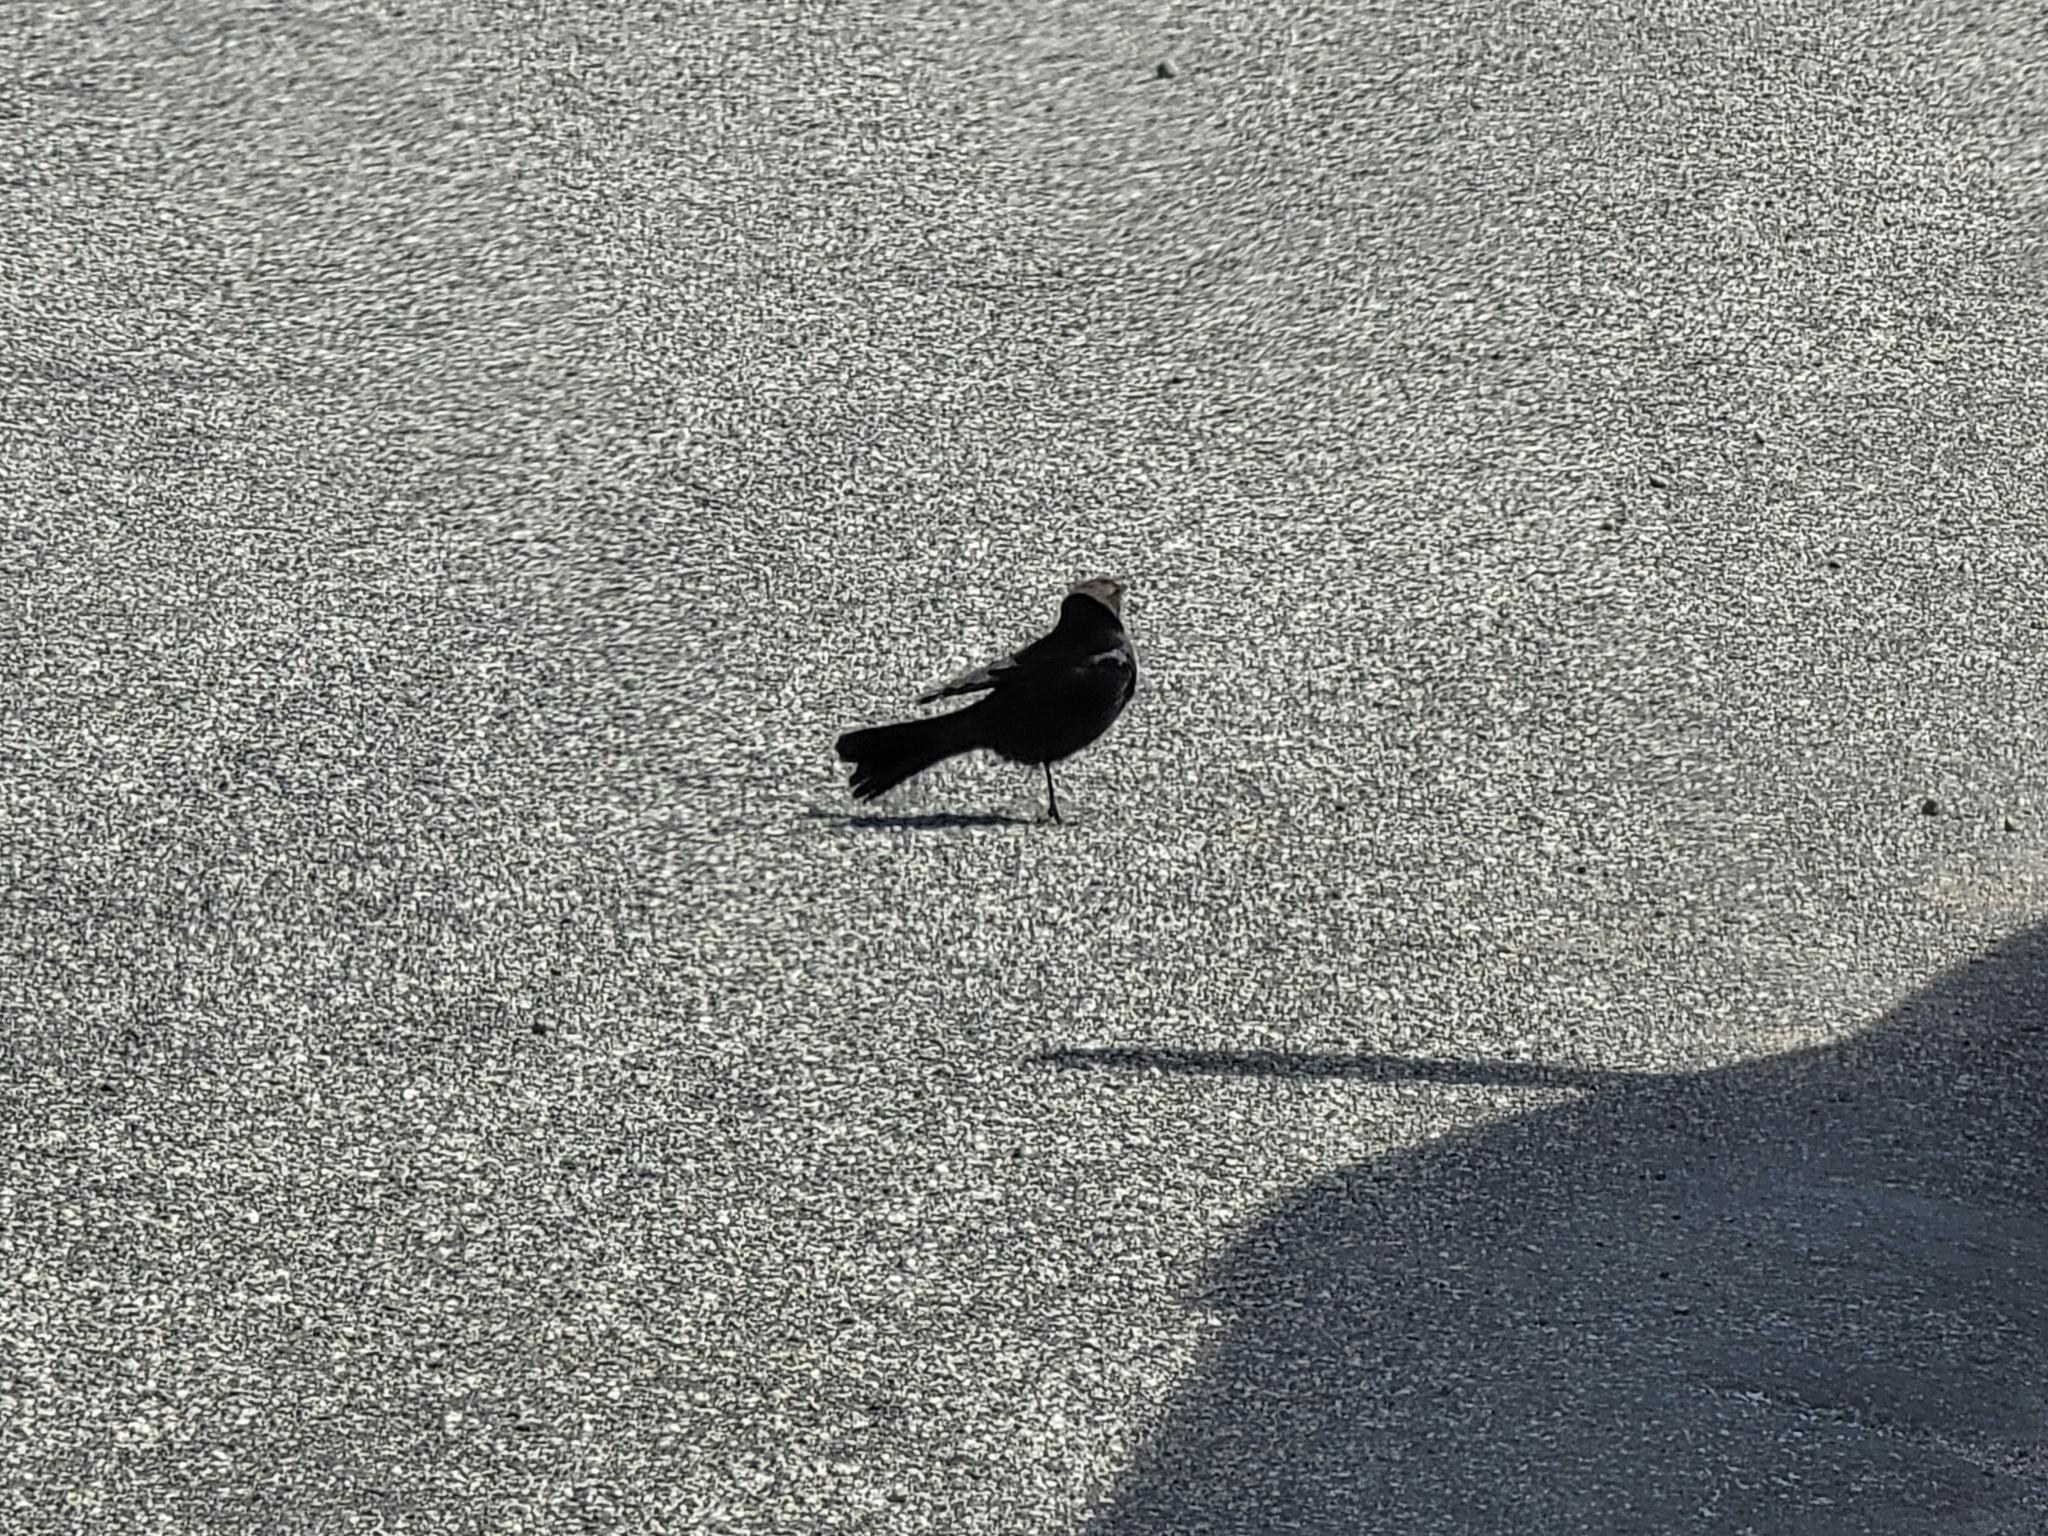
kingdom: Animalia
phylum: Chordata
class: Aves
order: Passeriformes
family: Icteridae
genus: Euphagus
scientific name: Euphagus cyanocephalus
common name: Brewer's blackbird
